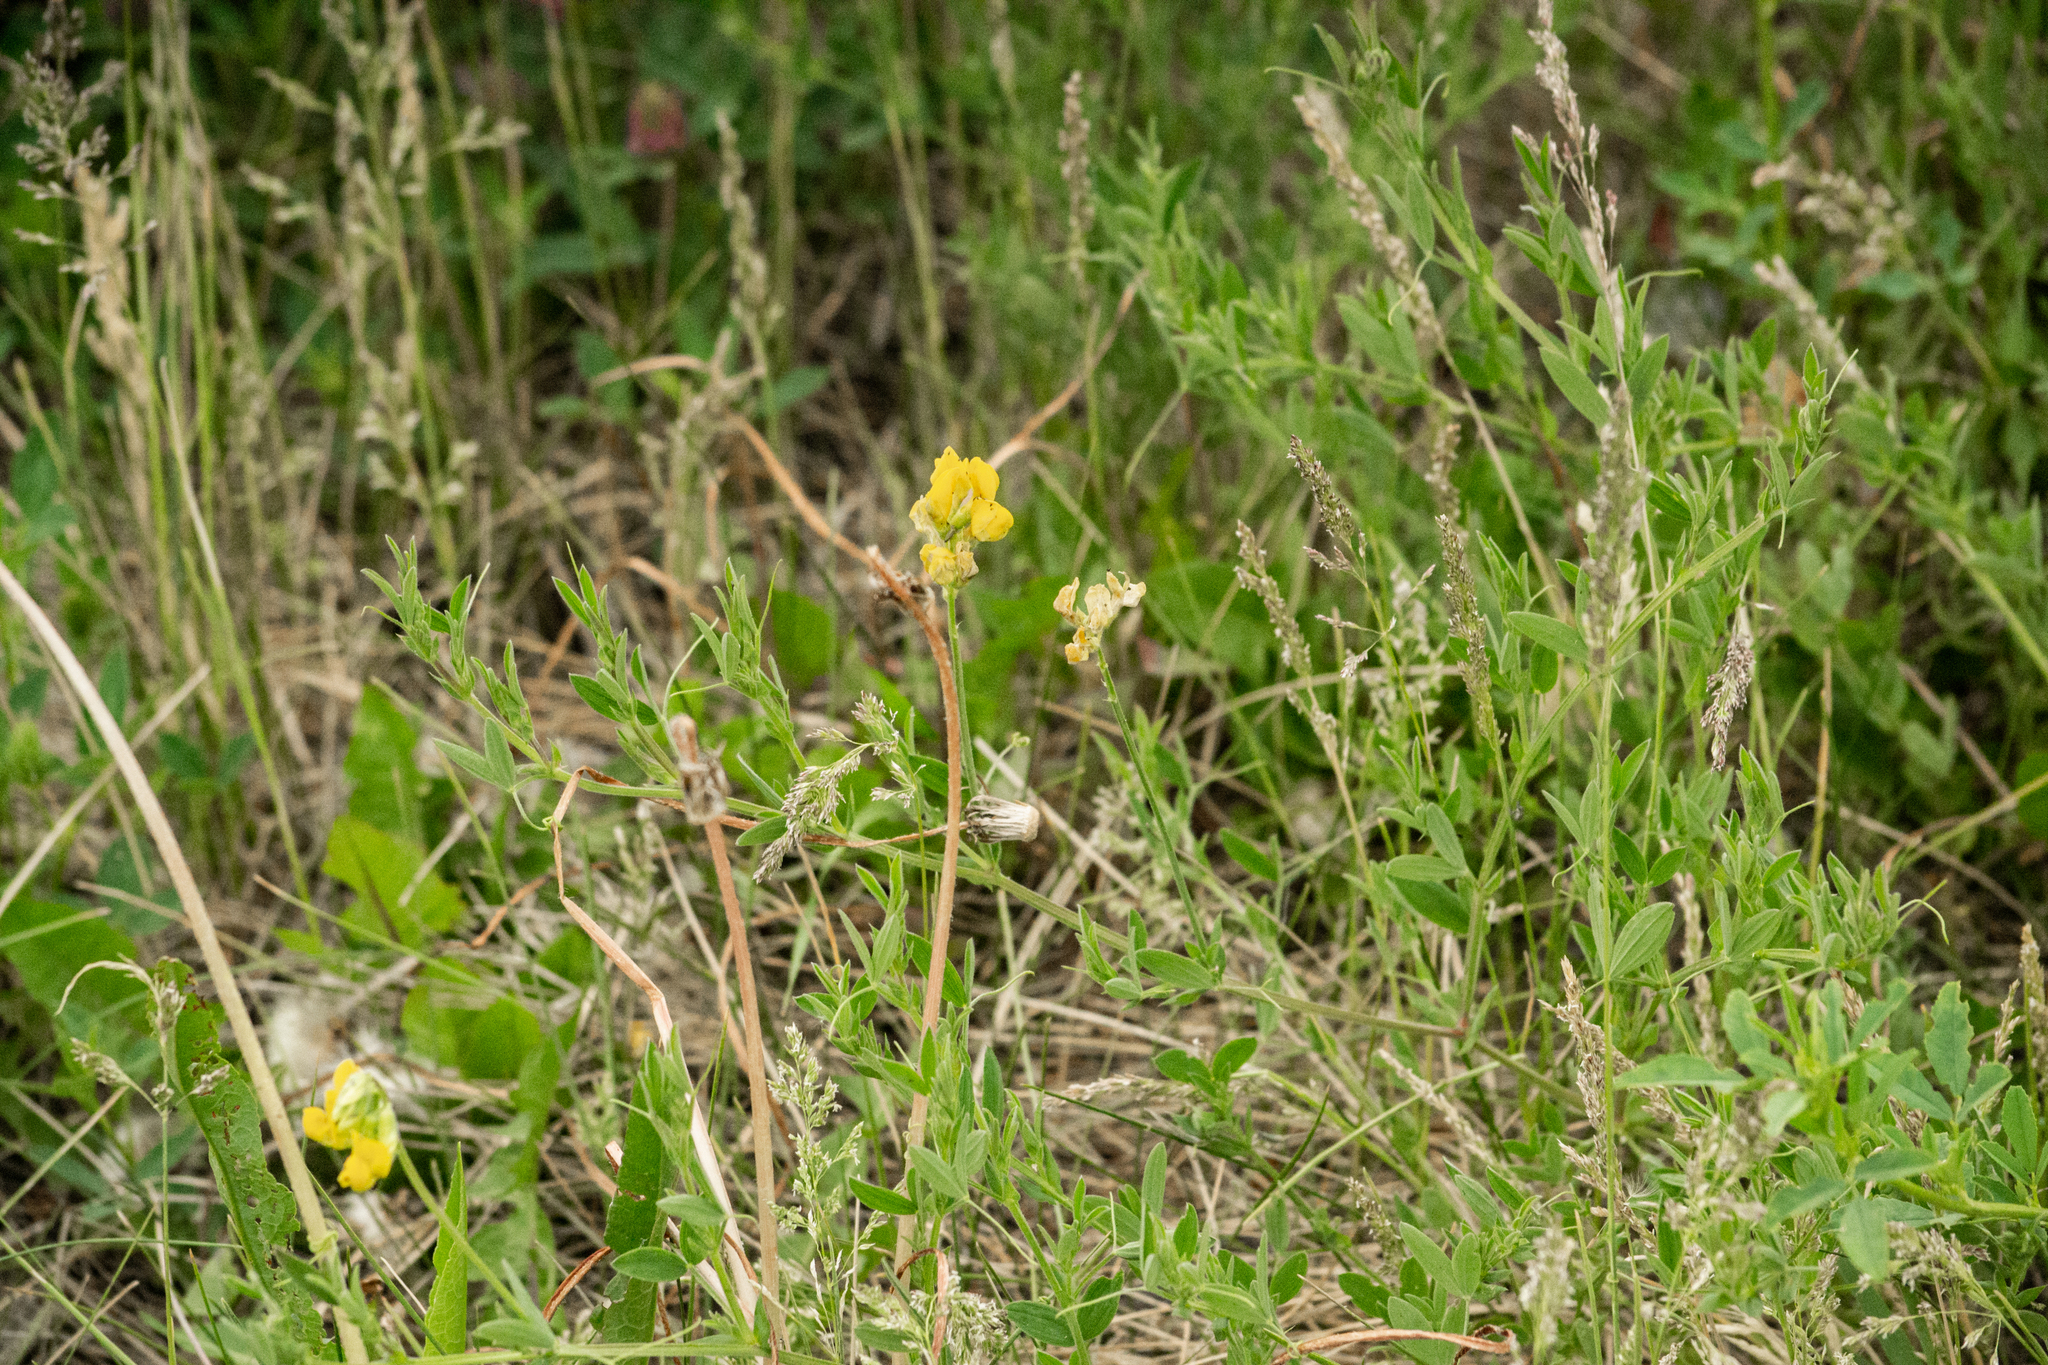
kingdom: Plantae
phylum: Tracheophyta
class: Magnoliopsida
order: Fabales
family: Fabaceae
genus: Lathyrus
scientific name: Lathyrus pratensis
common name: Meadow vetchling
